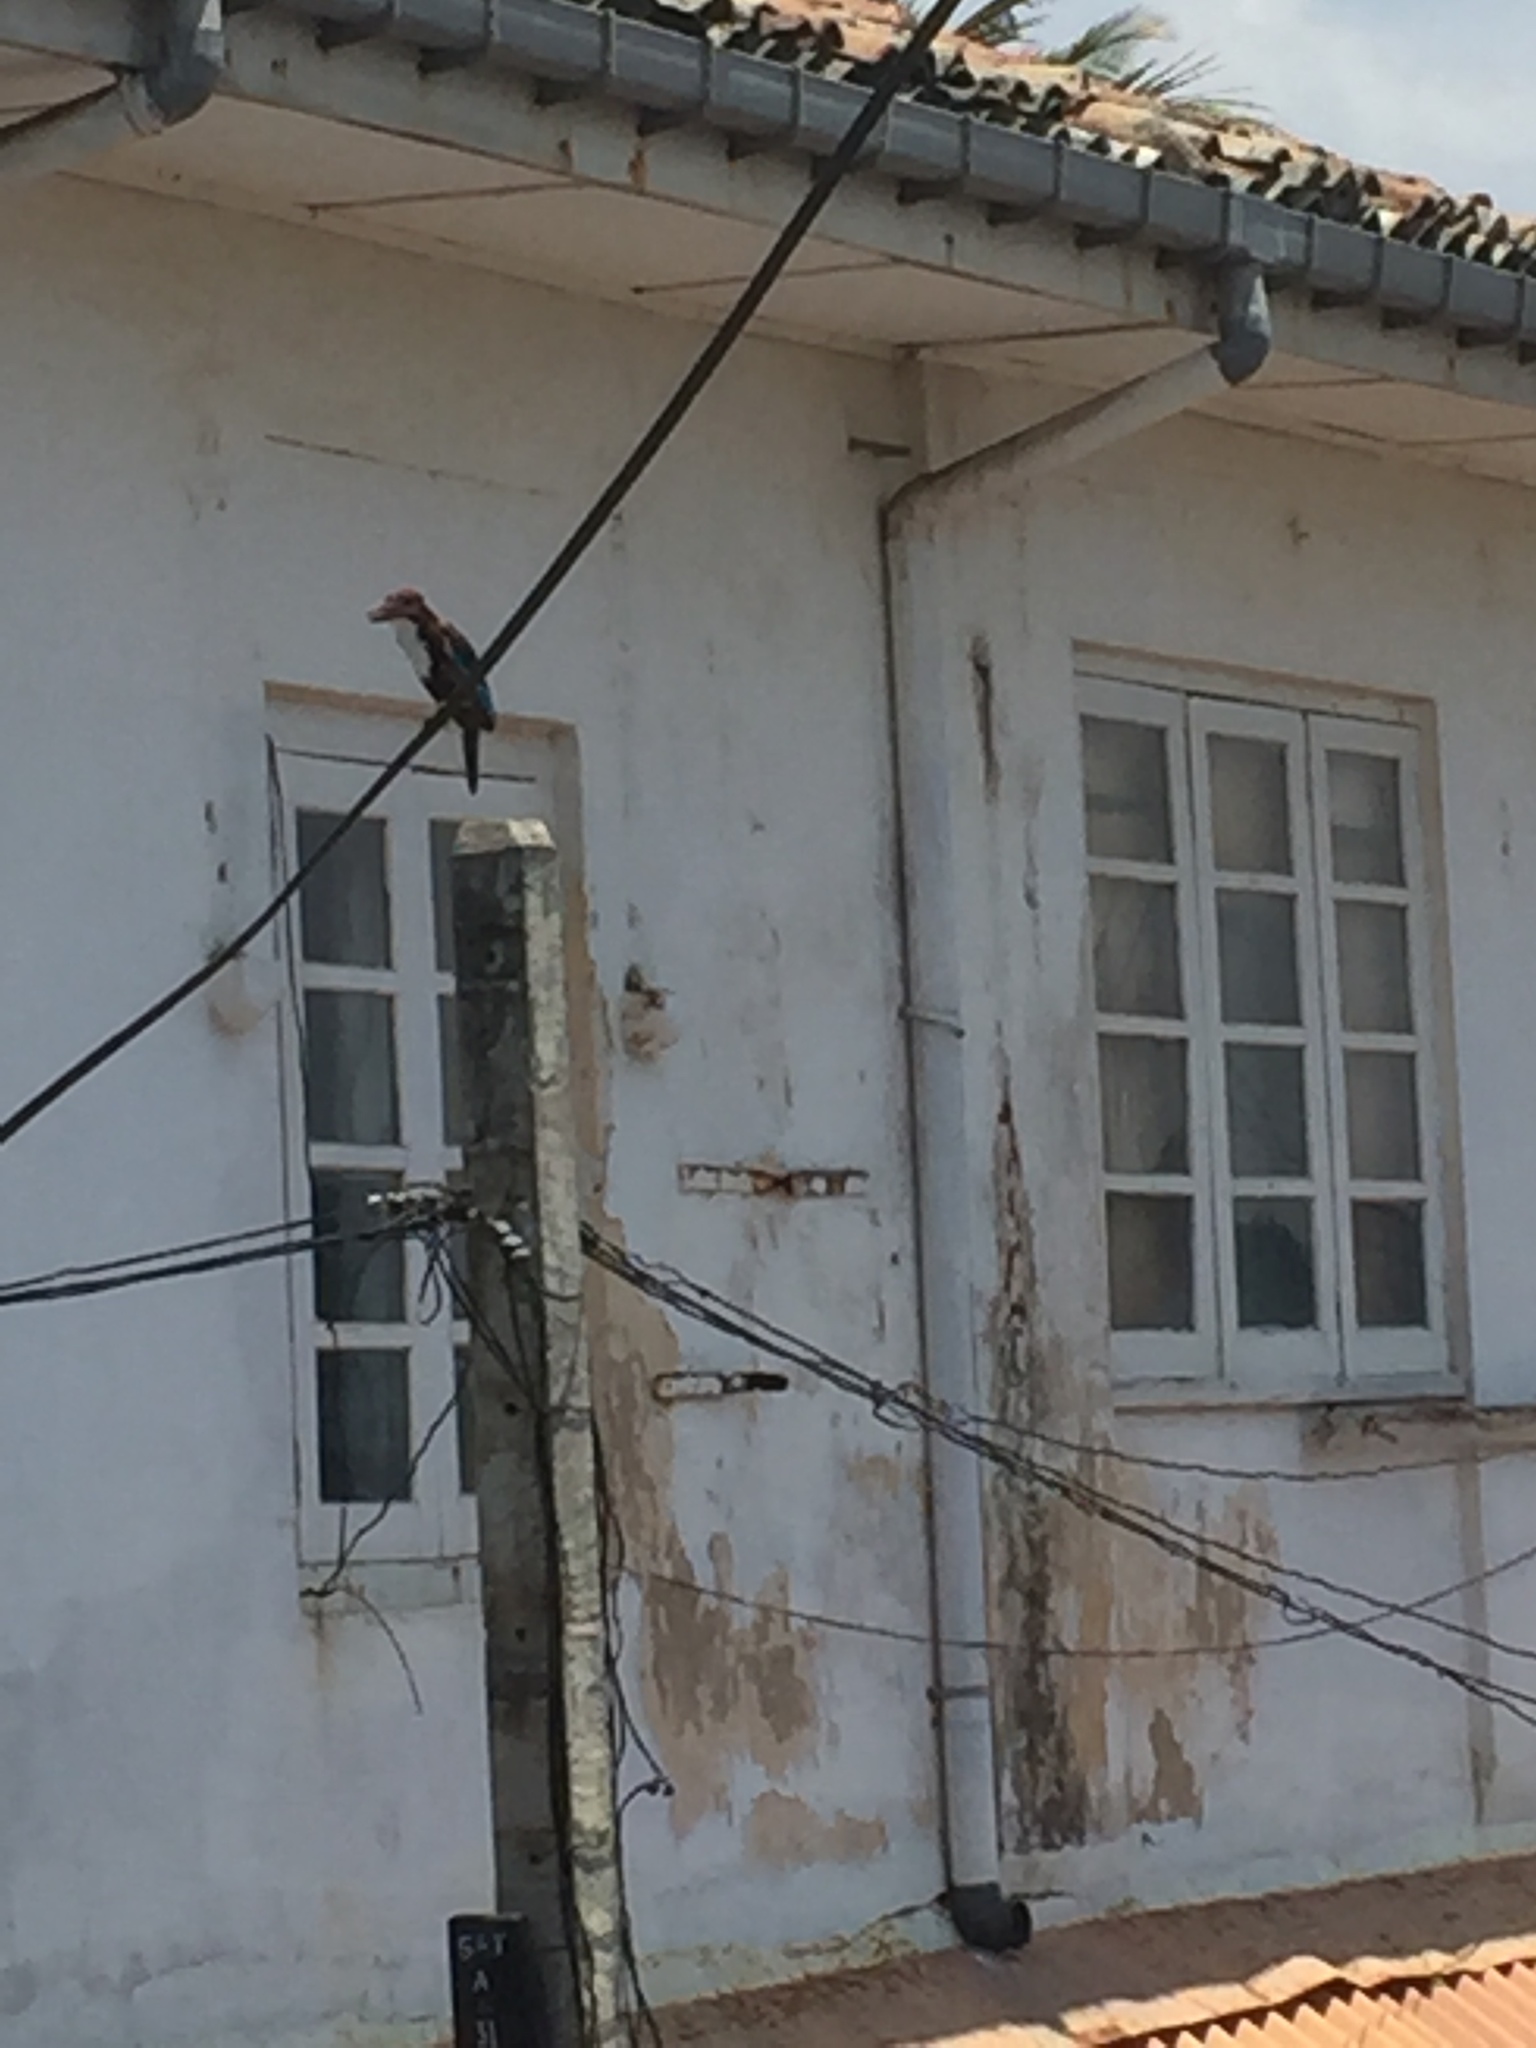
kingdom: Animalia
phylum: Chordata
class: Aves
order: Coraciiformes
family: Alcedinidae
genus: Halcyon
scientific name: Halcyon smyrnensis
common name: White-throated kingfisher
